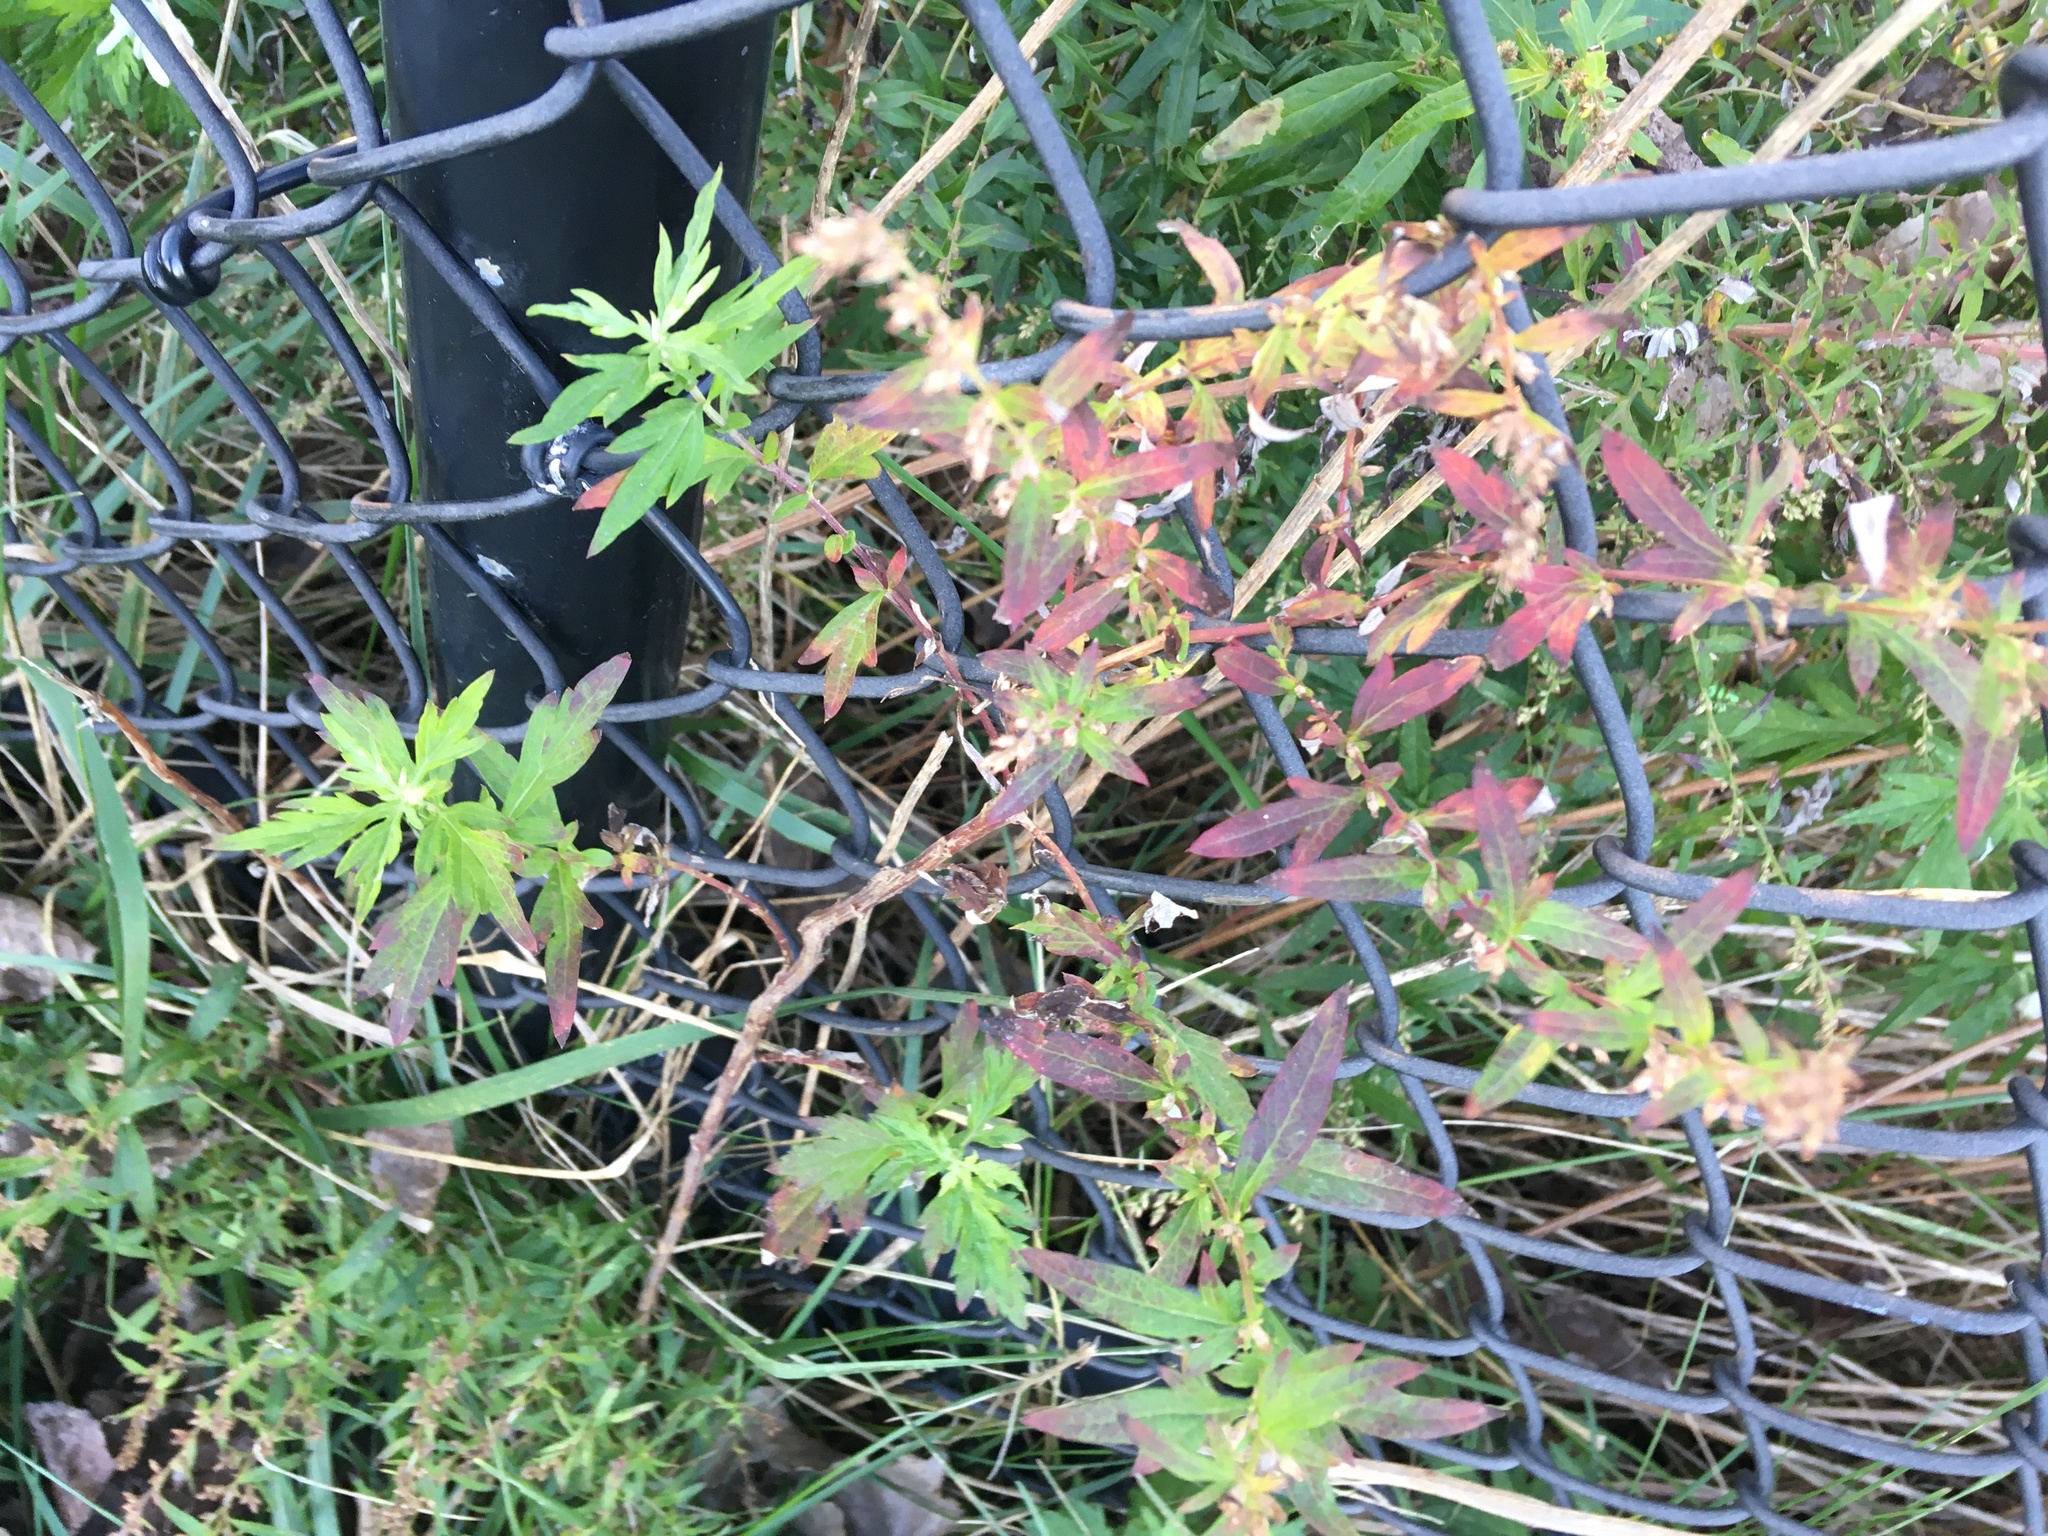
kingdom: Plantae
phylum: Tracheophyta
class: Magnoliopsida
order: Asterales
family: Asteraceae
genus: Artemisia
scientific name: Artemisia vulgaris
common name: Mugwort
